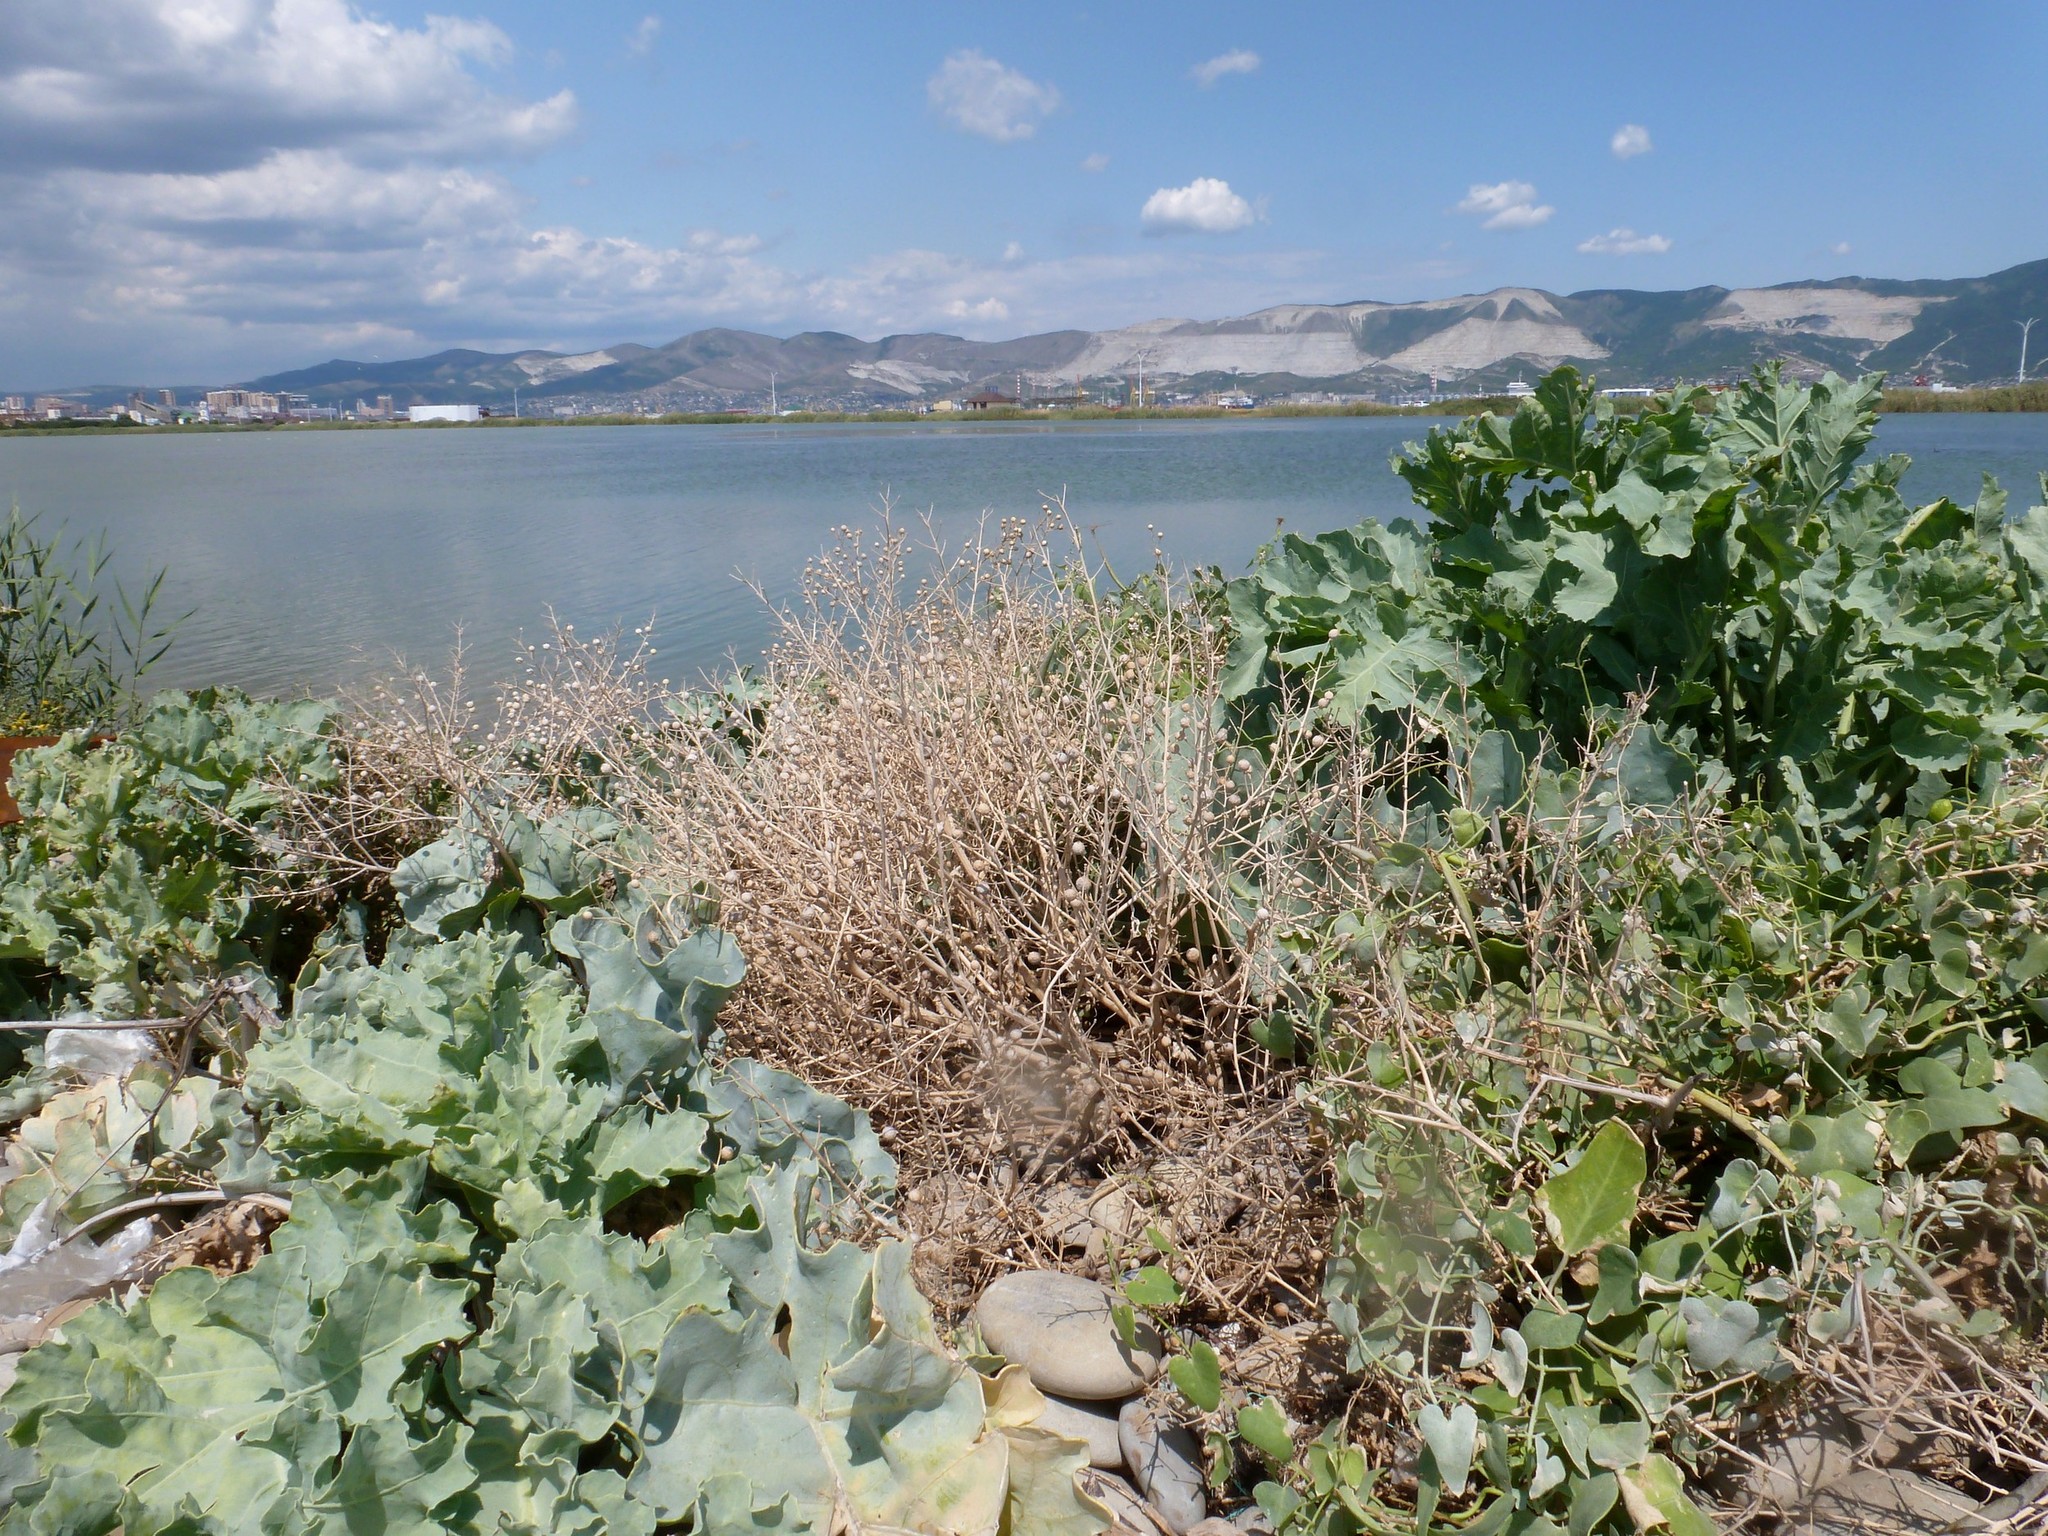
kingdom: Plantae
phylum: Tracheophyta
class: Magnoliopsida
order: Brassicales
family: Brassicaceae
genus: Crambe
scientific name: Crambe maritima
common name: Sea-kale
